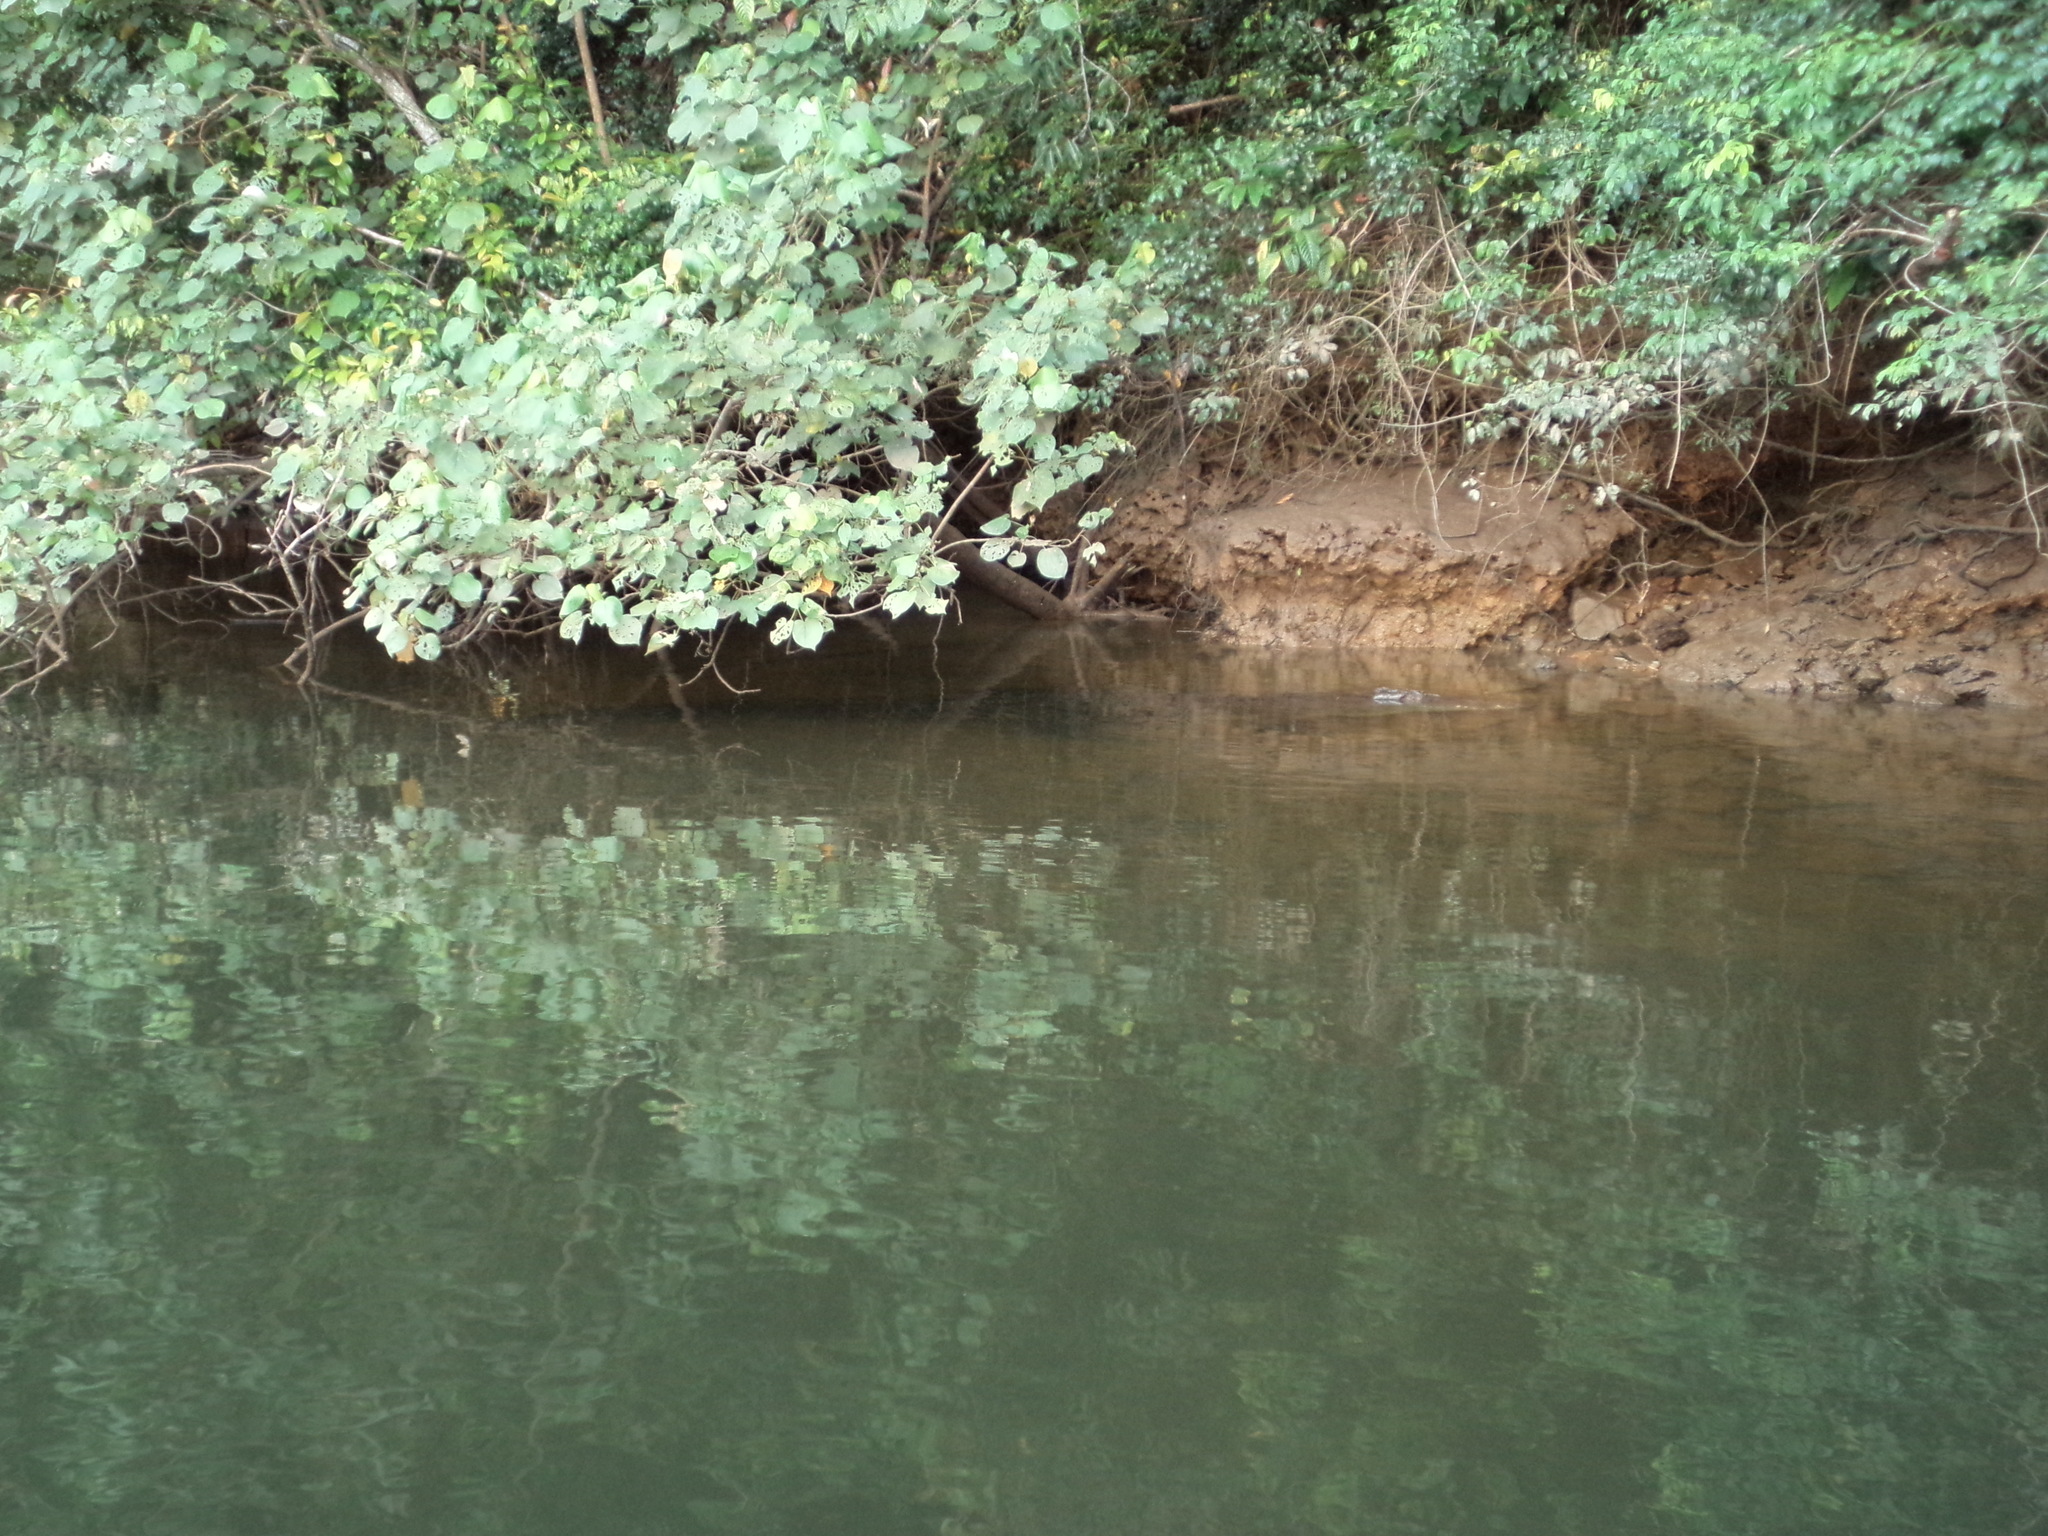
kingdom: Animalia
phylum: Chordata
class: Crocodylia
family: Crocodylidae
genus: Crocodylus
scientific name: Crocodylus porosus
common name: Saltwater crocodile
